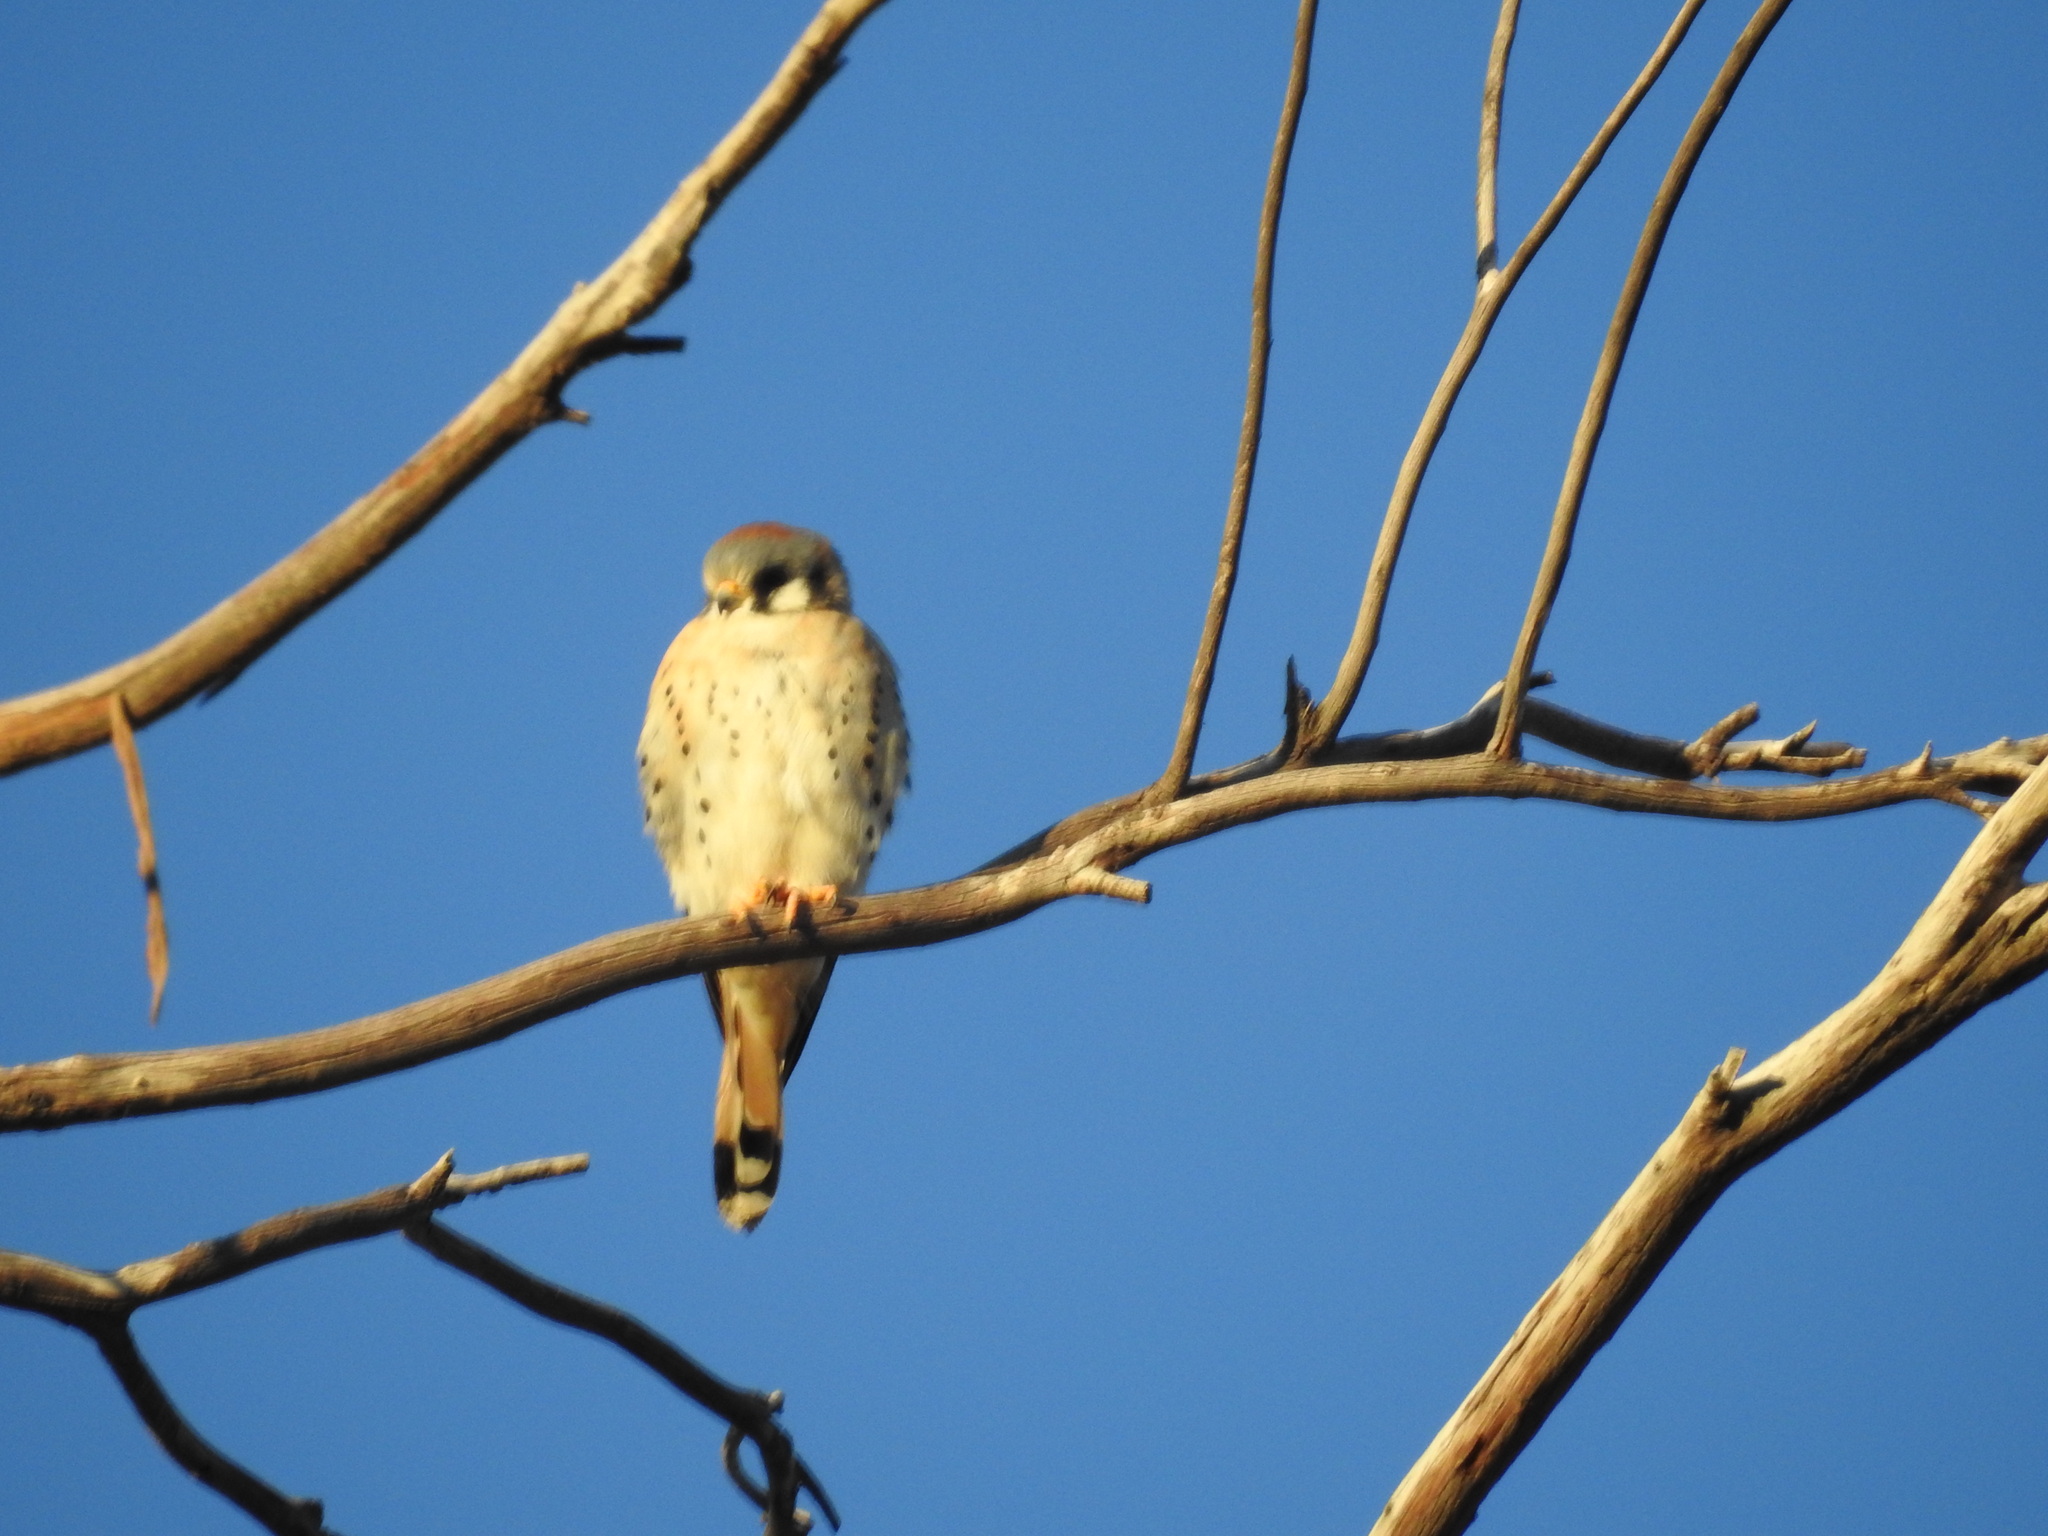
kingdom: Animalia
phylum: Chordata
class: Aves
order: Falconiformes
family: Falconidae
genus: Falco
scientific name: Falco sparverius
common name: American kestrel
